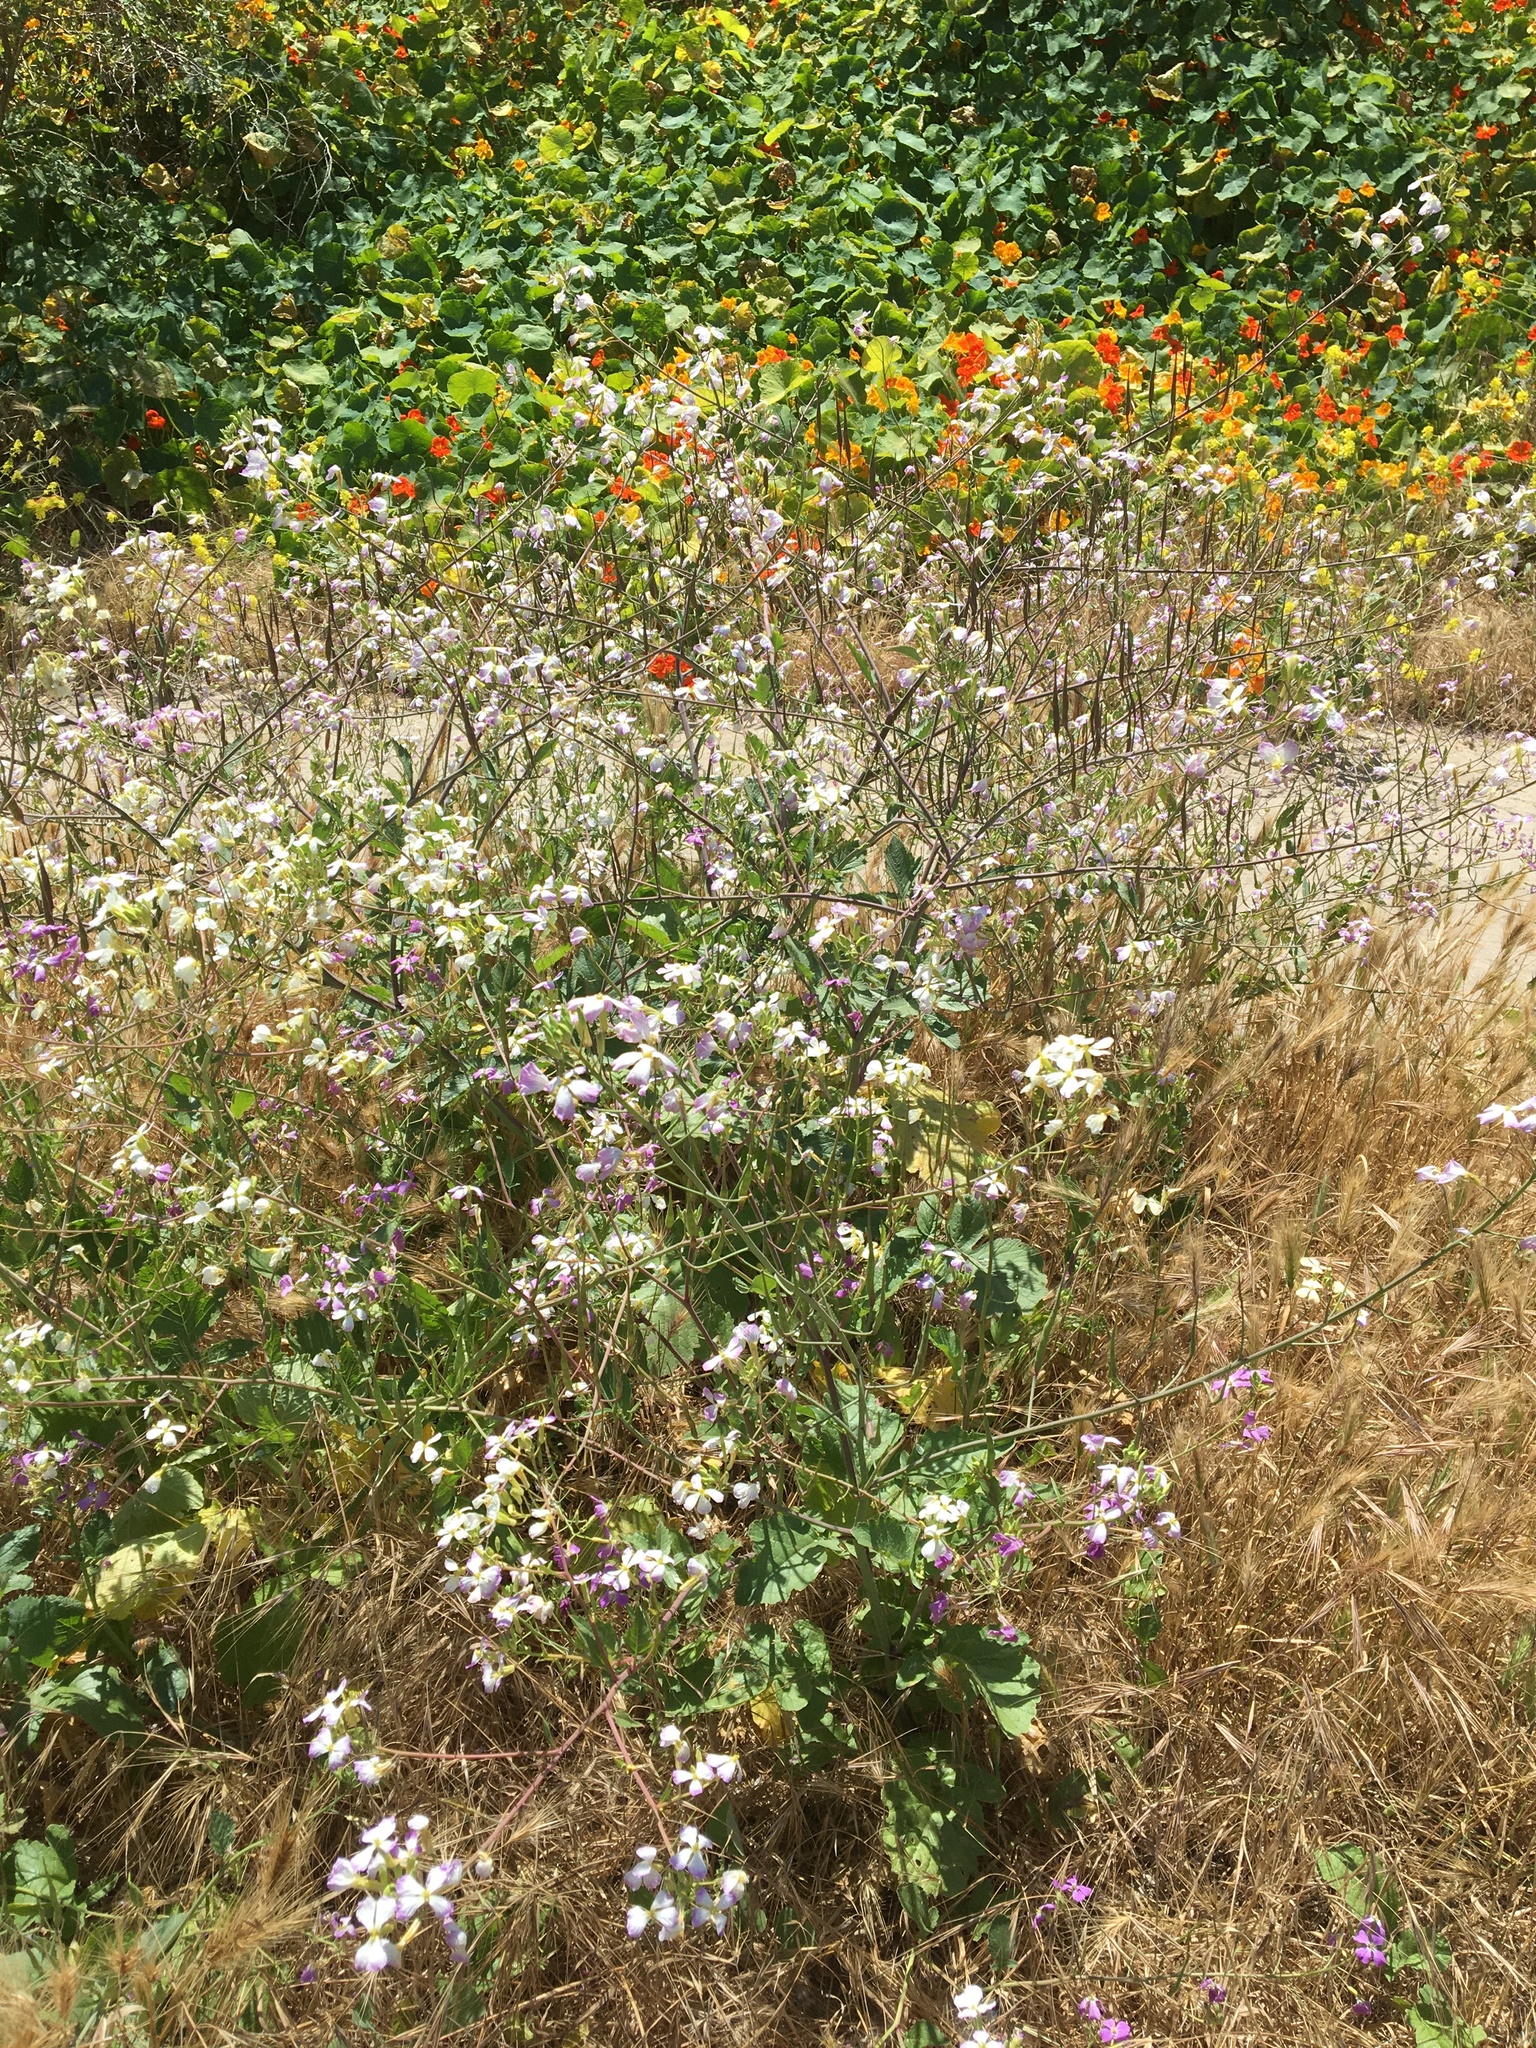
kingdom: Plantae
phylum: Tracheophyta
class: Magnoliopsida
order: Brassicales
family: Brassicaceae
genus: Raphanus
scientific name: Raphanus sativus
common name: Cultivated radish
